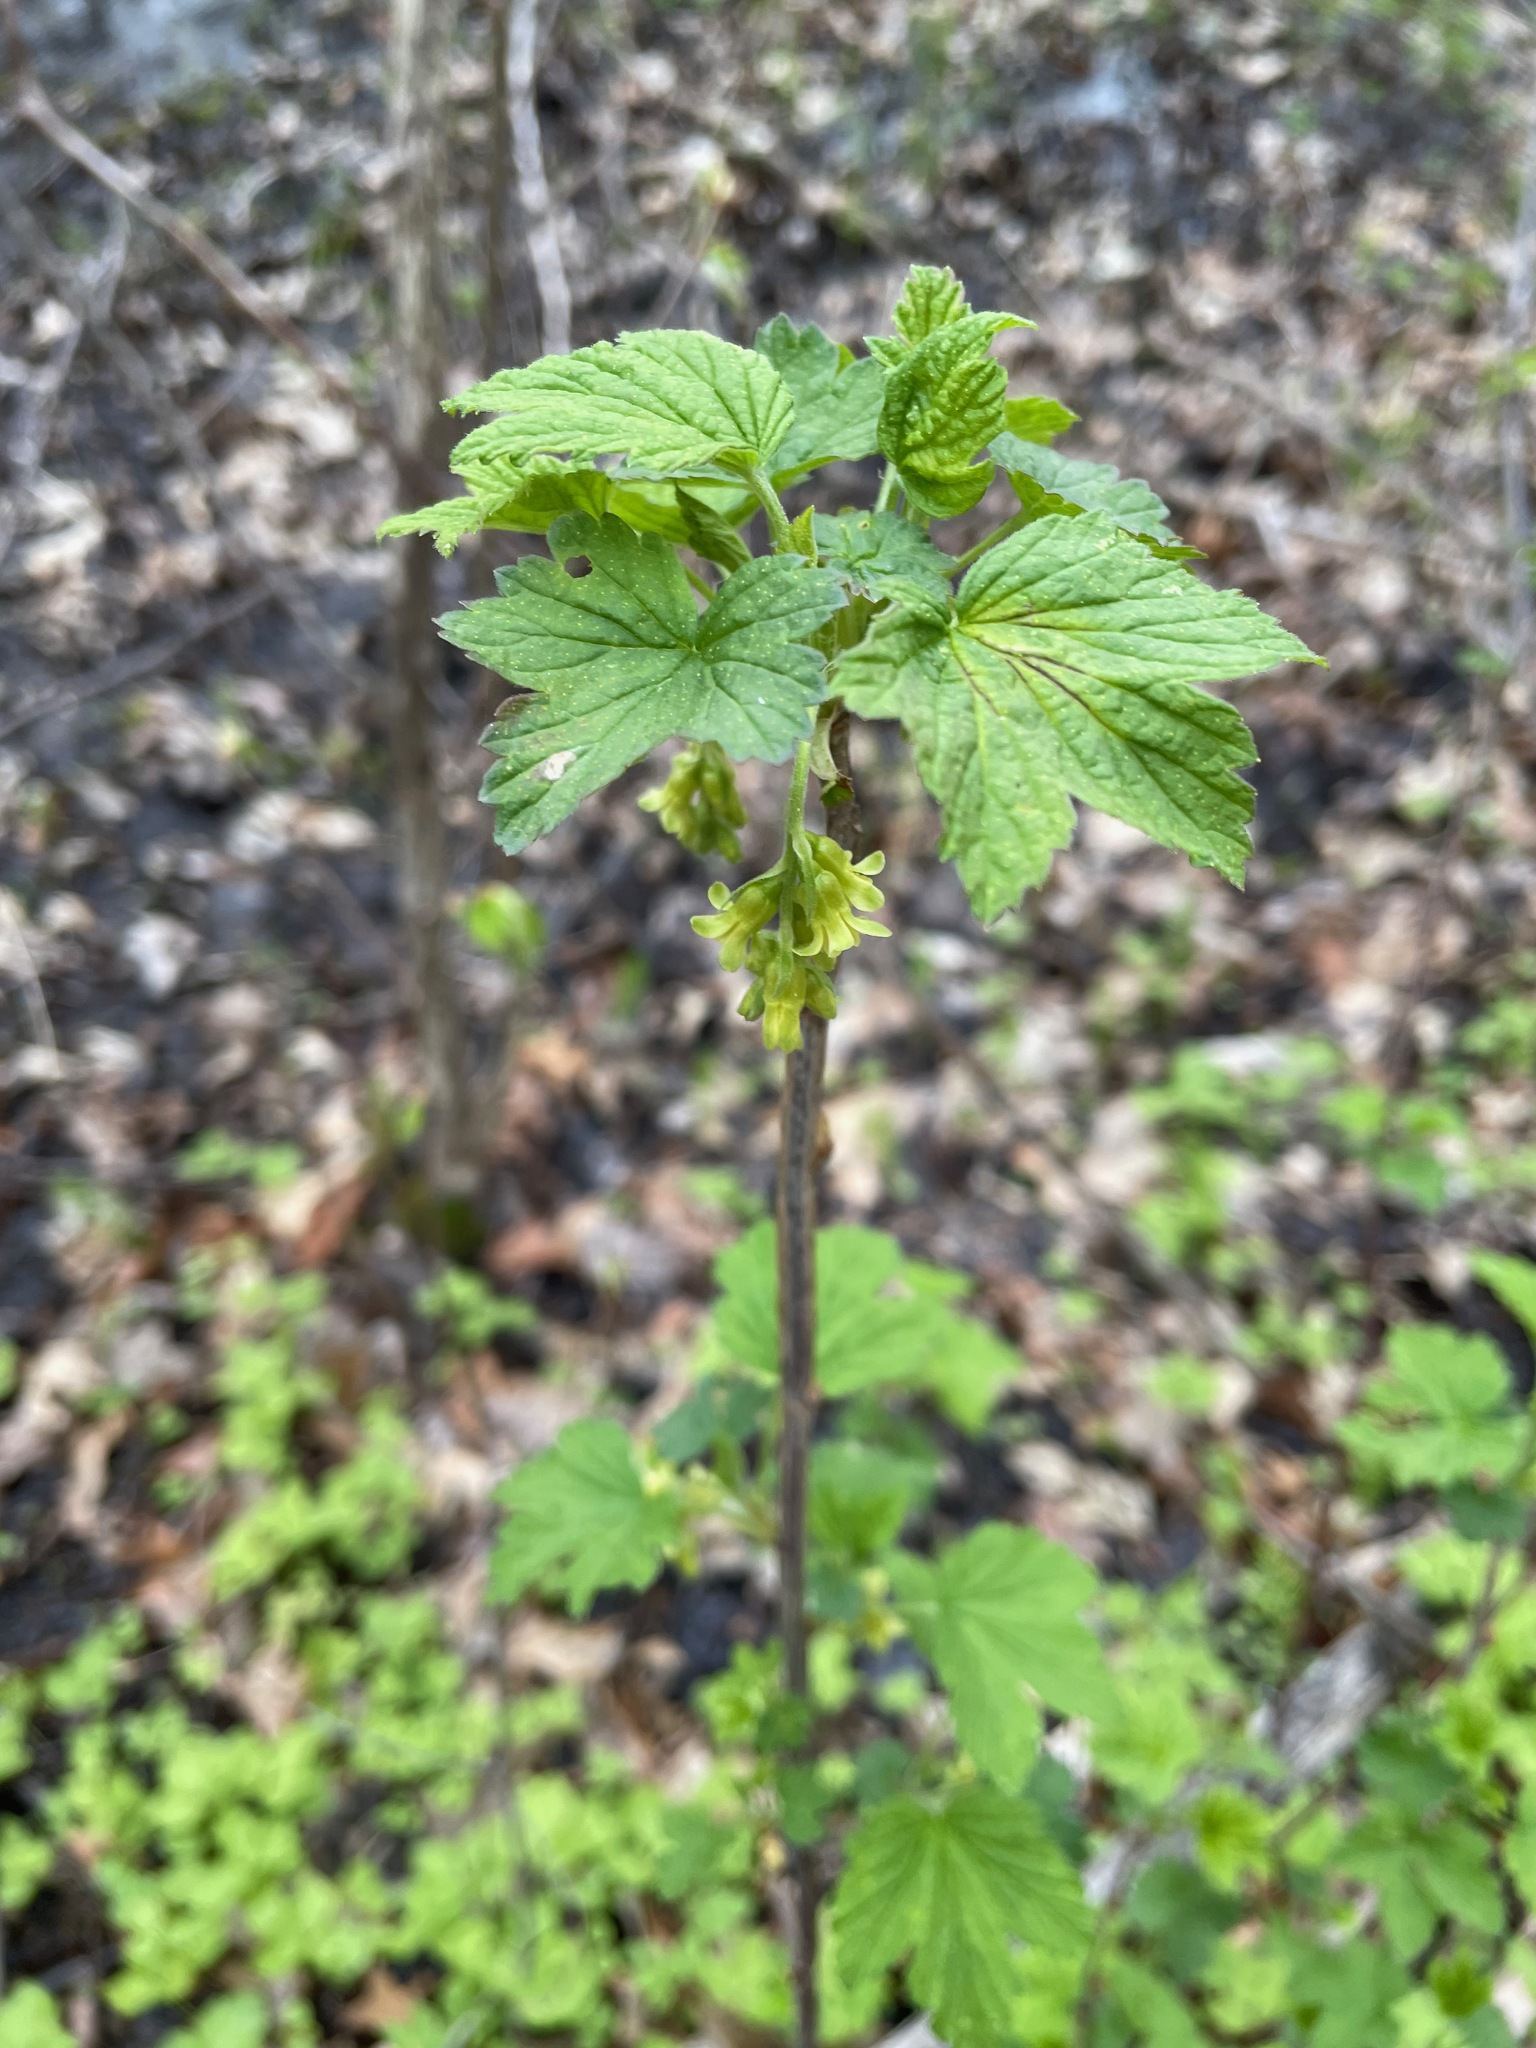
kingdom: Plantae
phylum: Tracheophyta
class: Magnoliopsida
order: Saxifragales
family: Grossulariaceae
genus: Ribes
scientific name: Ribes americanum
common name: American black currant
